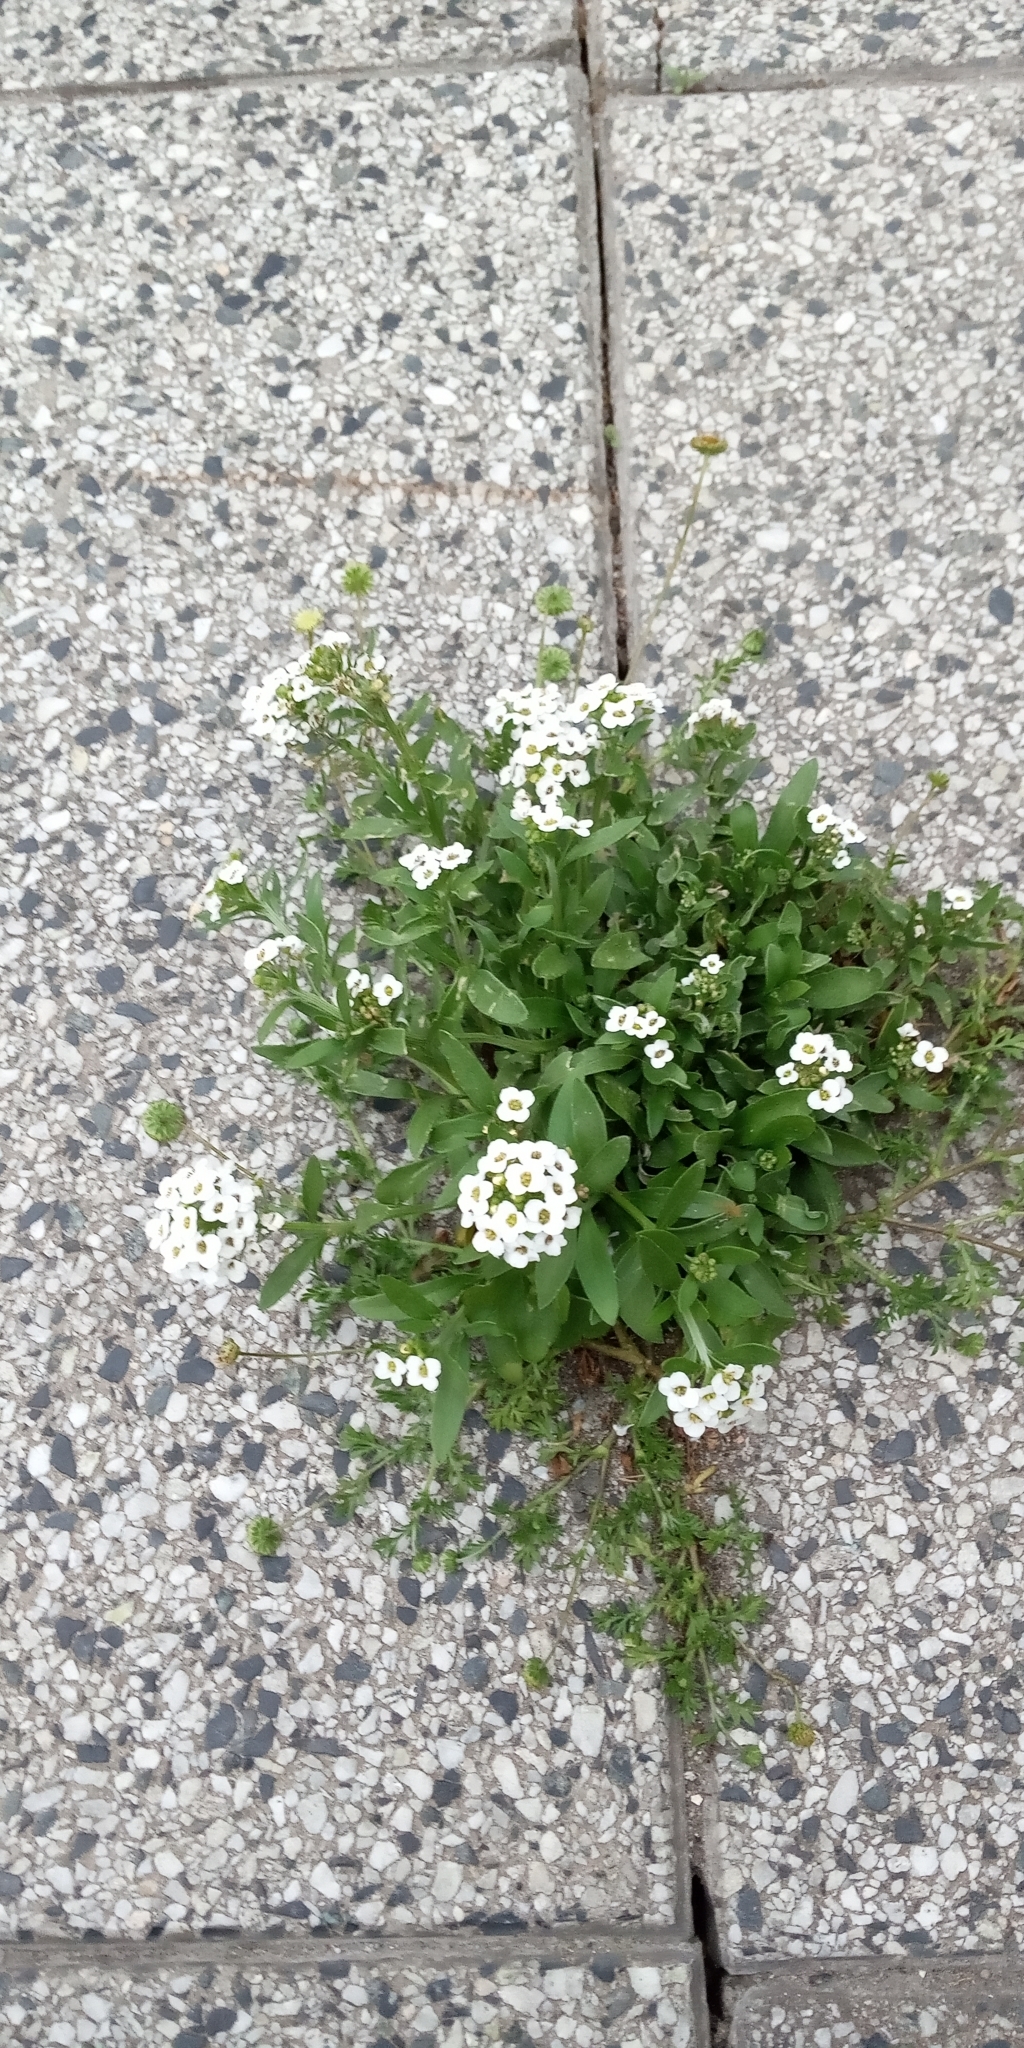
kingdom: Plantae
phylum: Tracheophyta
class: Magnoliopsida
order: Brassicales
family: Brassicaceae
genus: Lobularia
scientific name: Lobularia maritima
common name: Sweet alison
